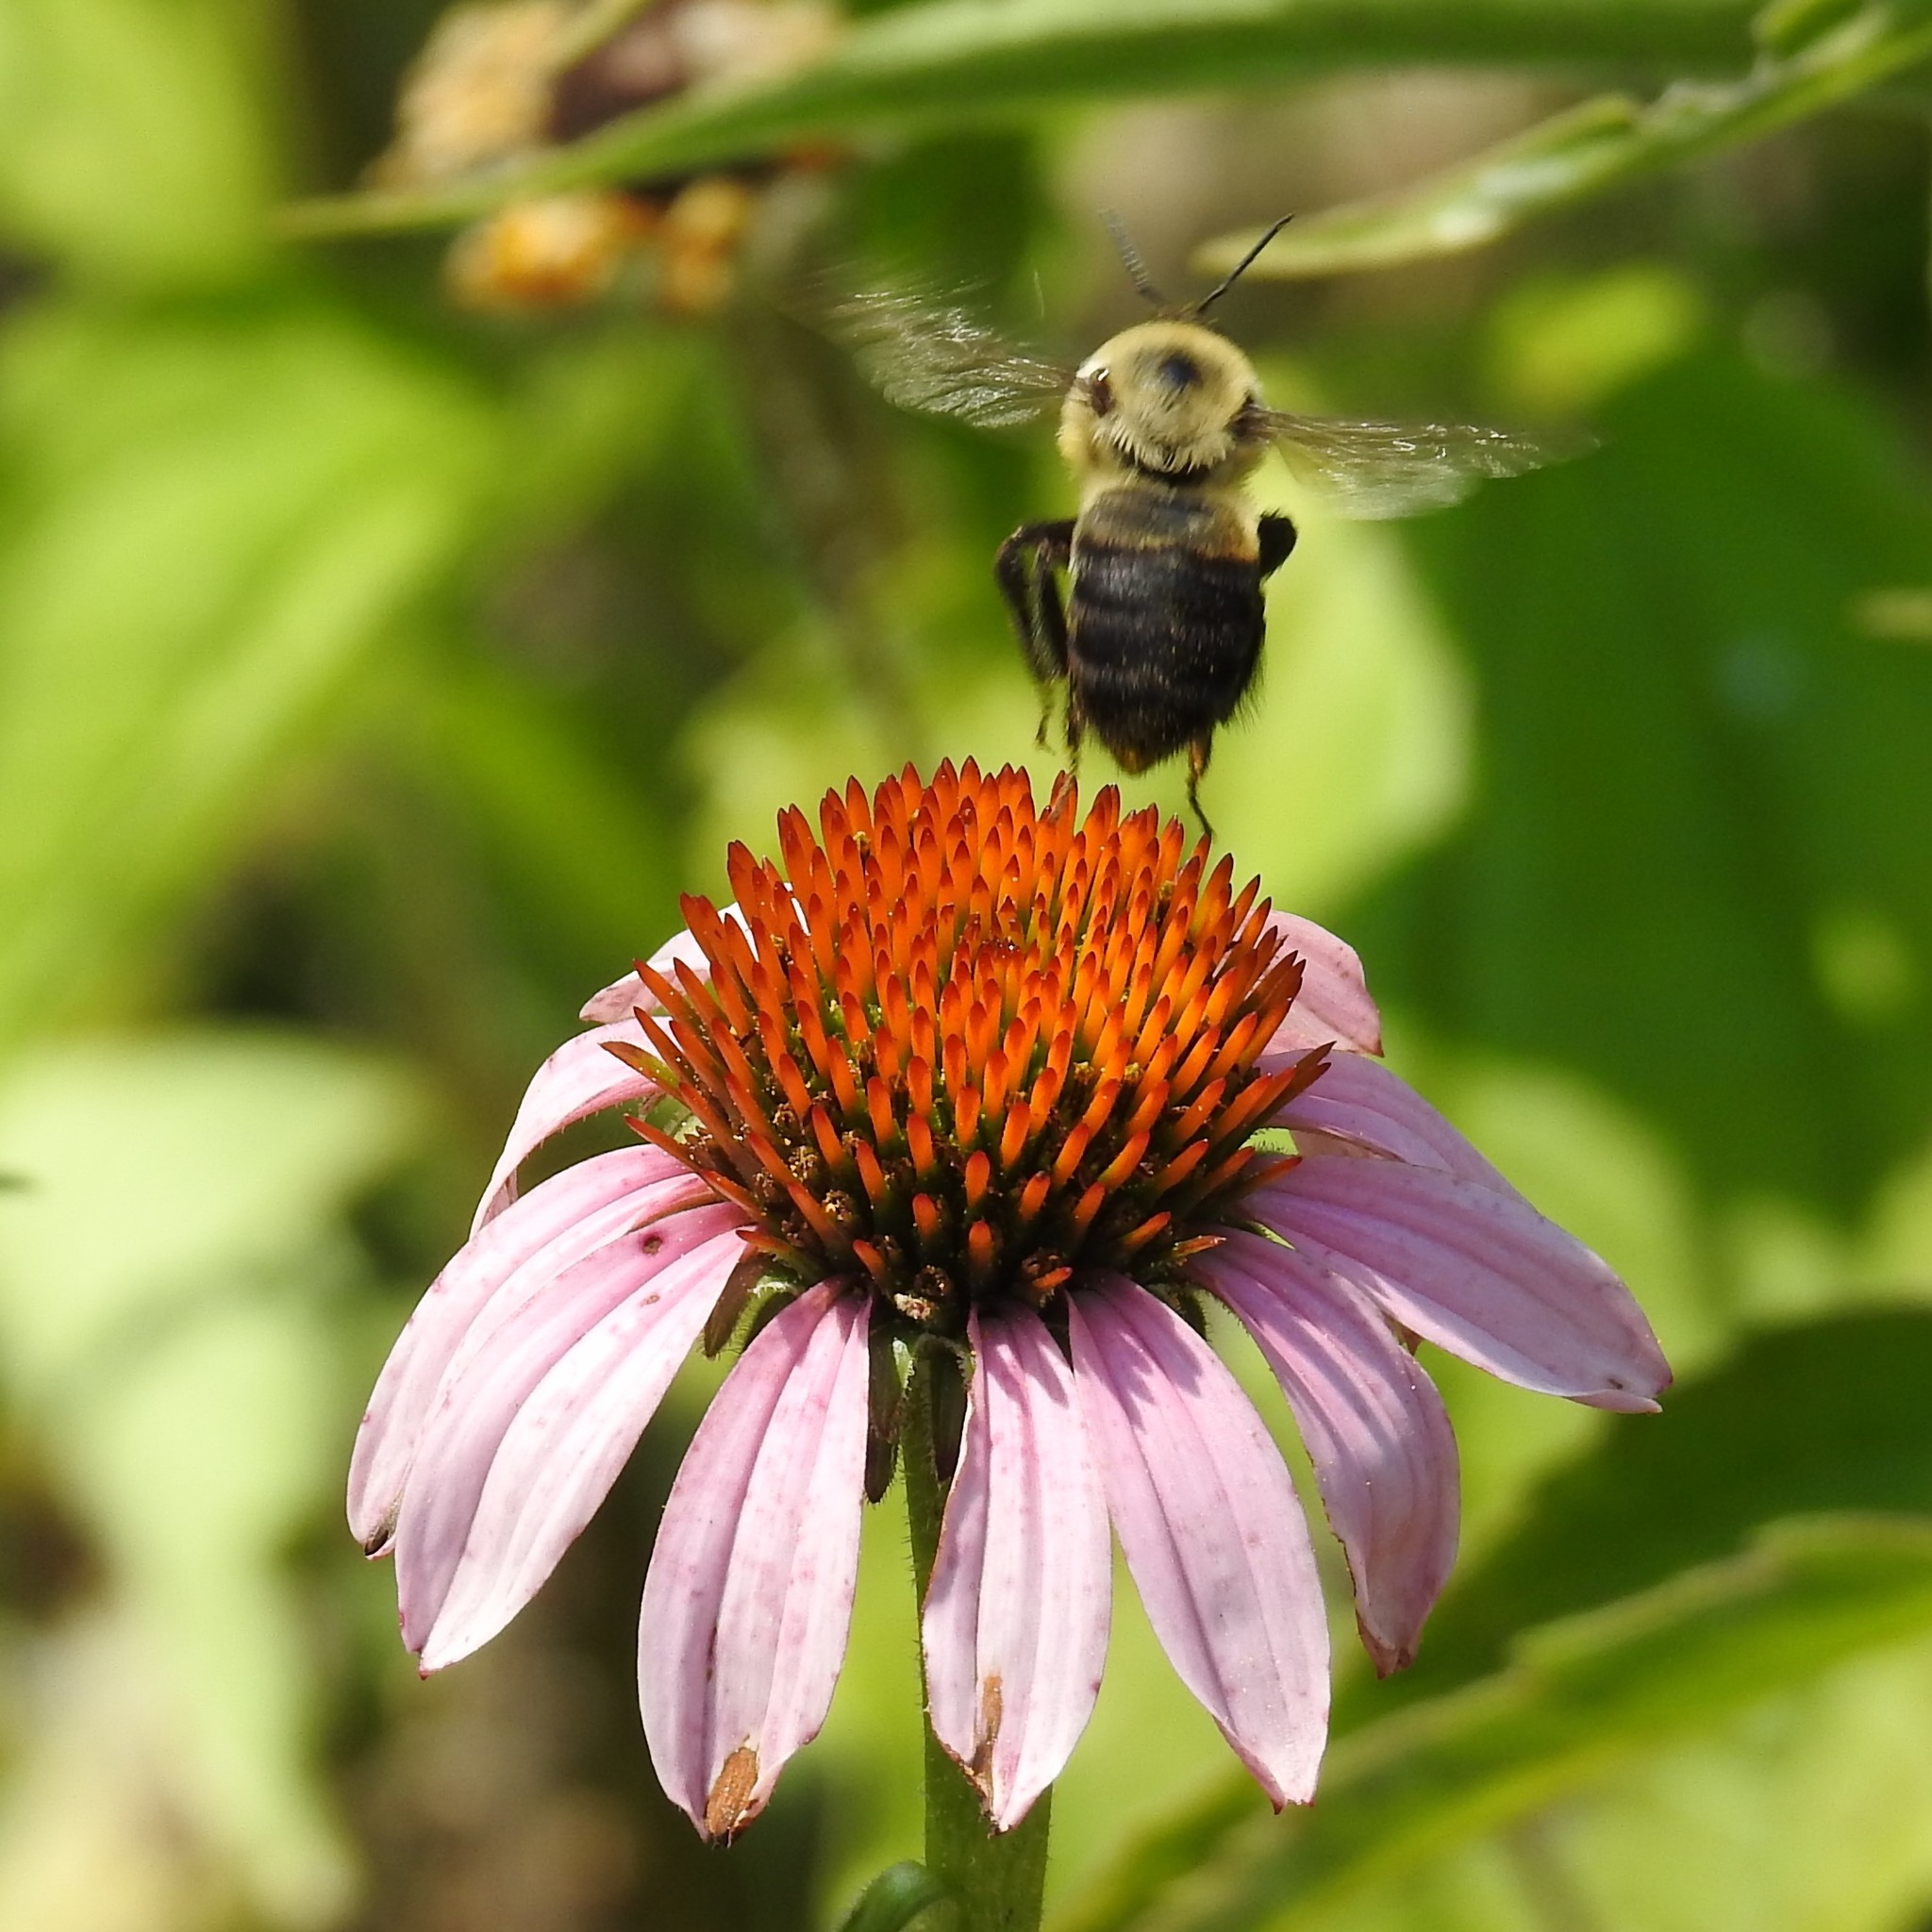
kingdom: Animalia
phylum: Arthropoda
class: Insecta
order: Hymenoptera
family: Apidae
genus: Bombus
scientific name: Bombus griseocollis
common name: Brown-belted bumble bee
